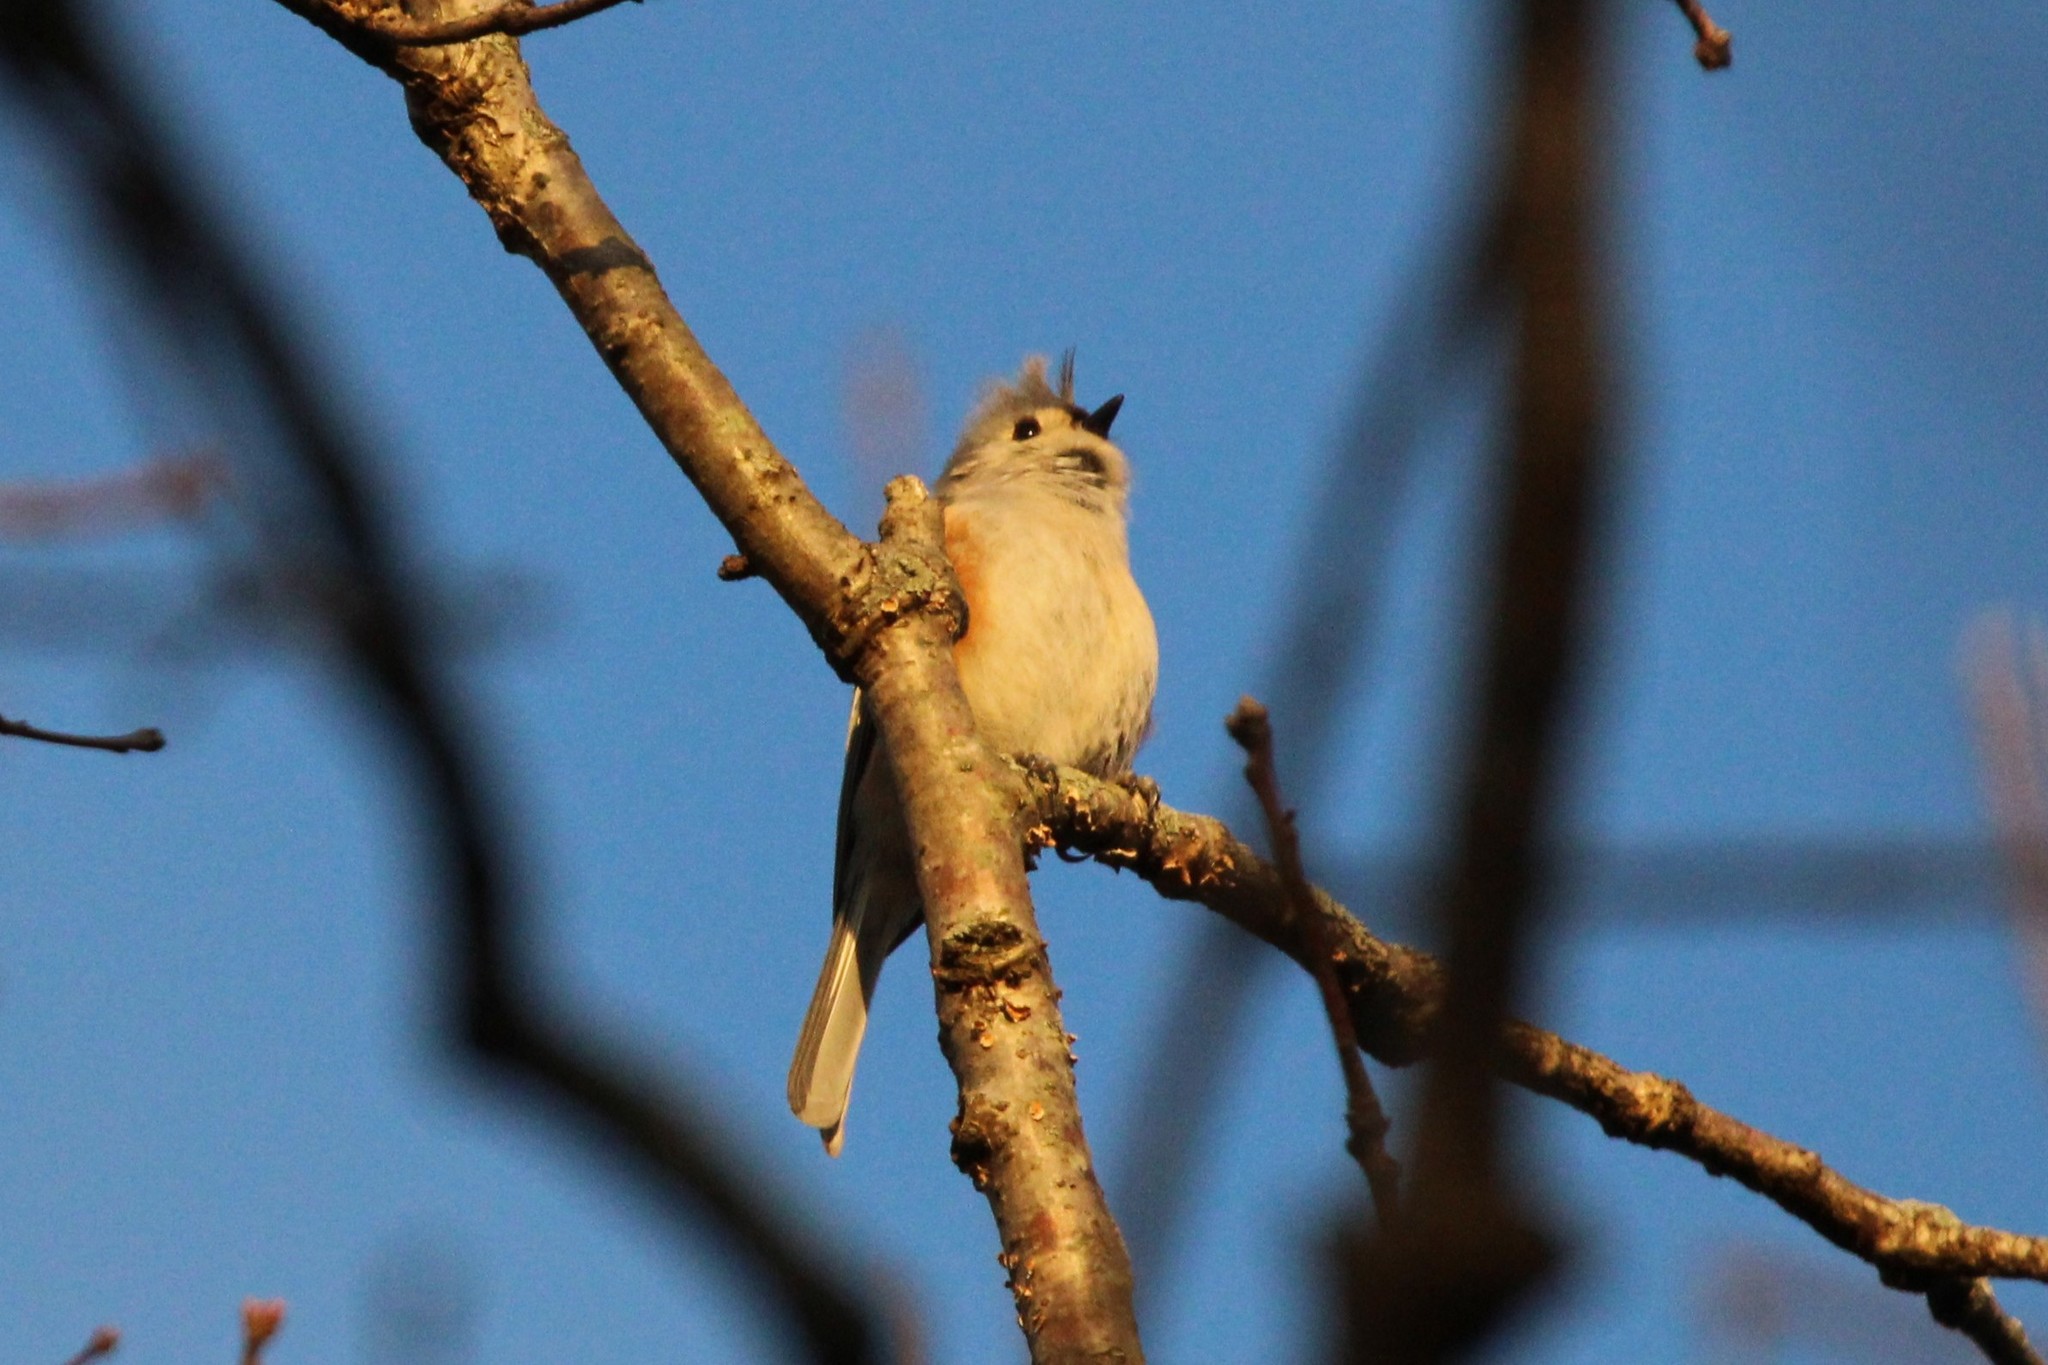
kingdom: Animalia
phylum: Chordata
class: Aves
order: Passeriformes
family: Paridae
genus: Baeolophus
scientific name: Baeolophus bicolor
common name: Tufted titmouse
